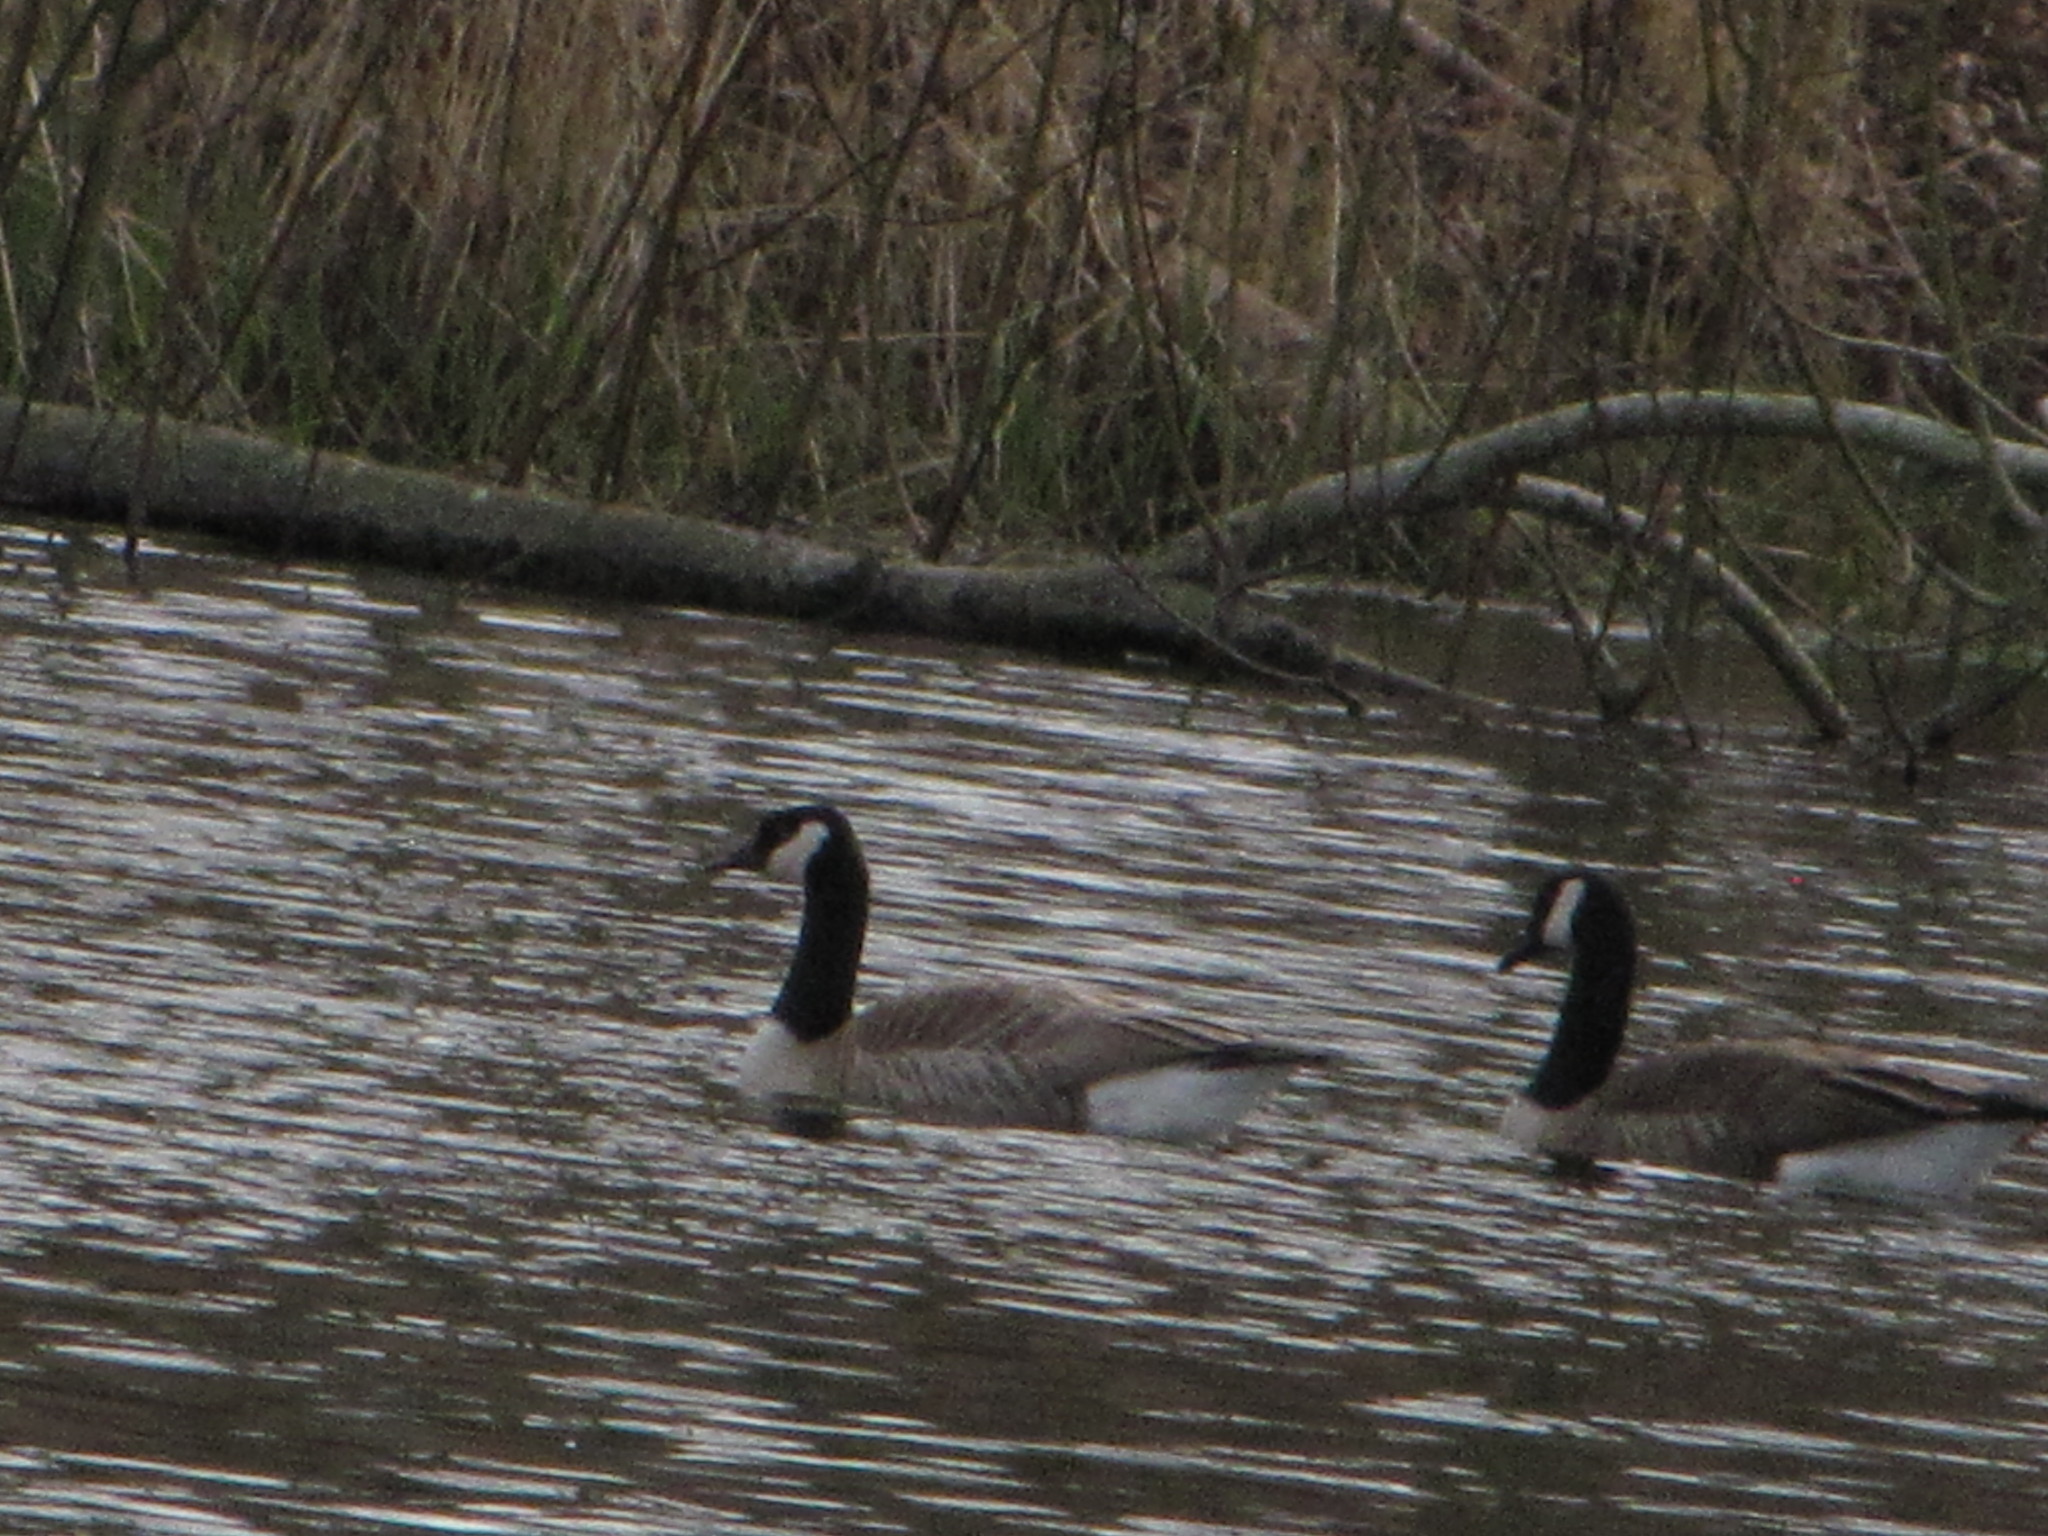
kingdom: Animalia
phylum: Chordata
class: Aves
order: Anseriformes
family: Anatidae
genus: Branta
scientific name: Branta canadensis
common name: Canada goose
